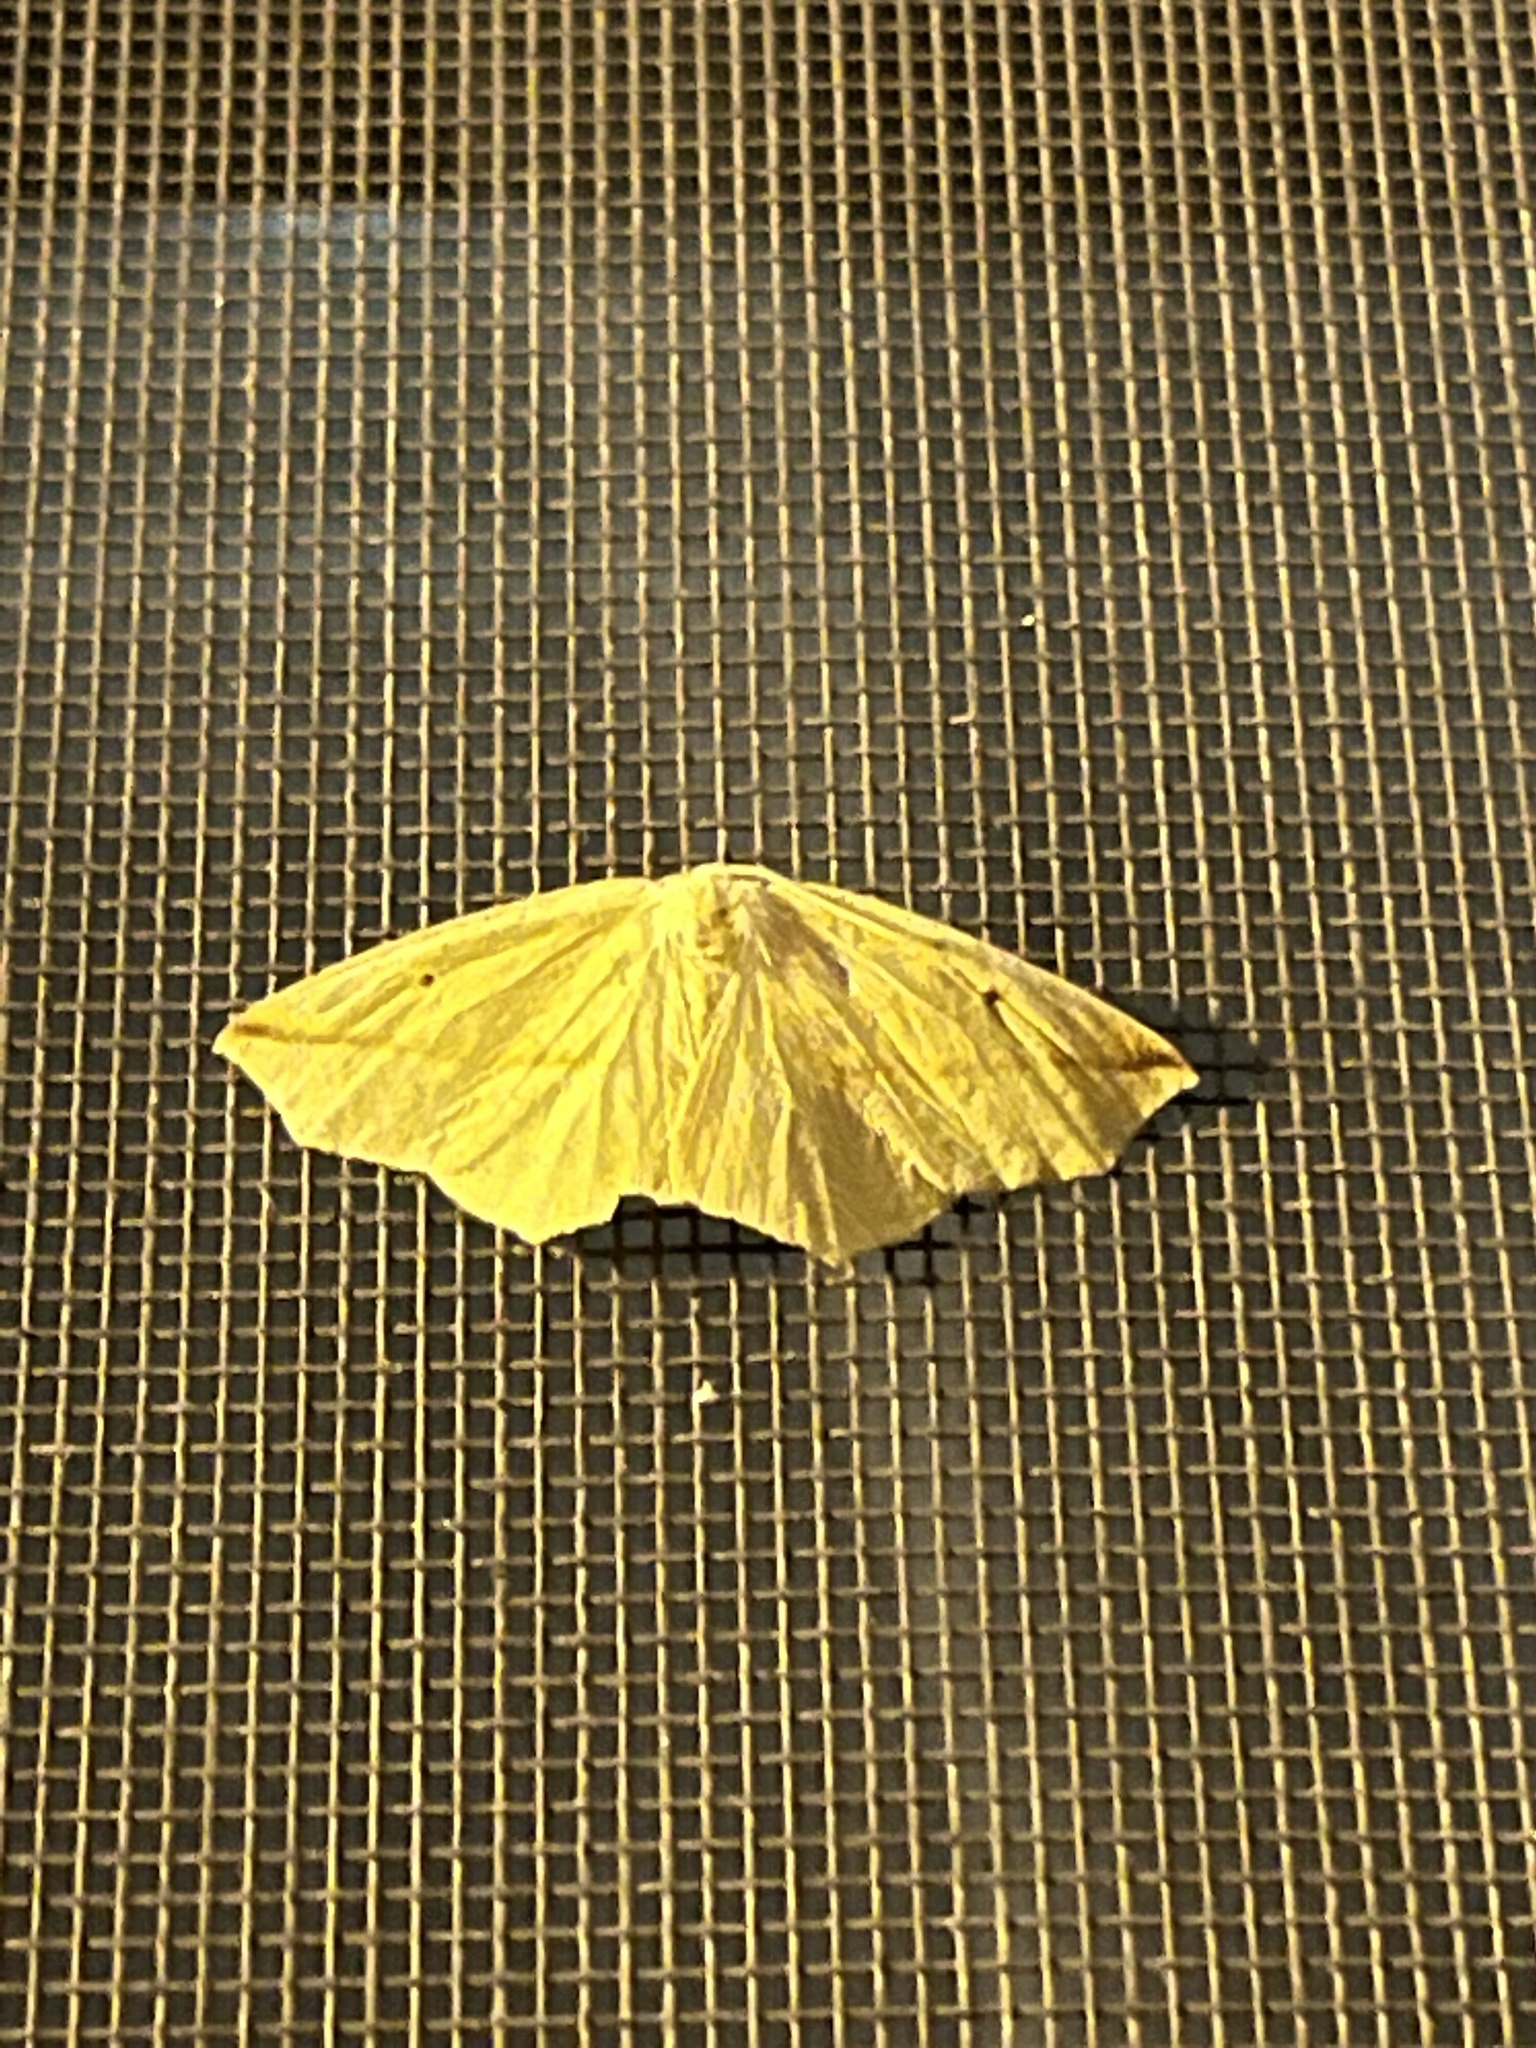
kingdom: Animalia
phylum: Arthropoda
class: Insecta
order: Lepidoptera
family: Geometridae
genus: Tetracis
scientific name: Tetracis crocallata
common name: Yellow slant-line
